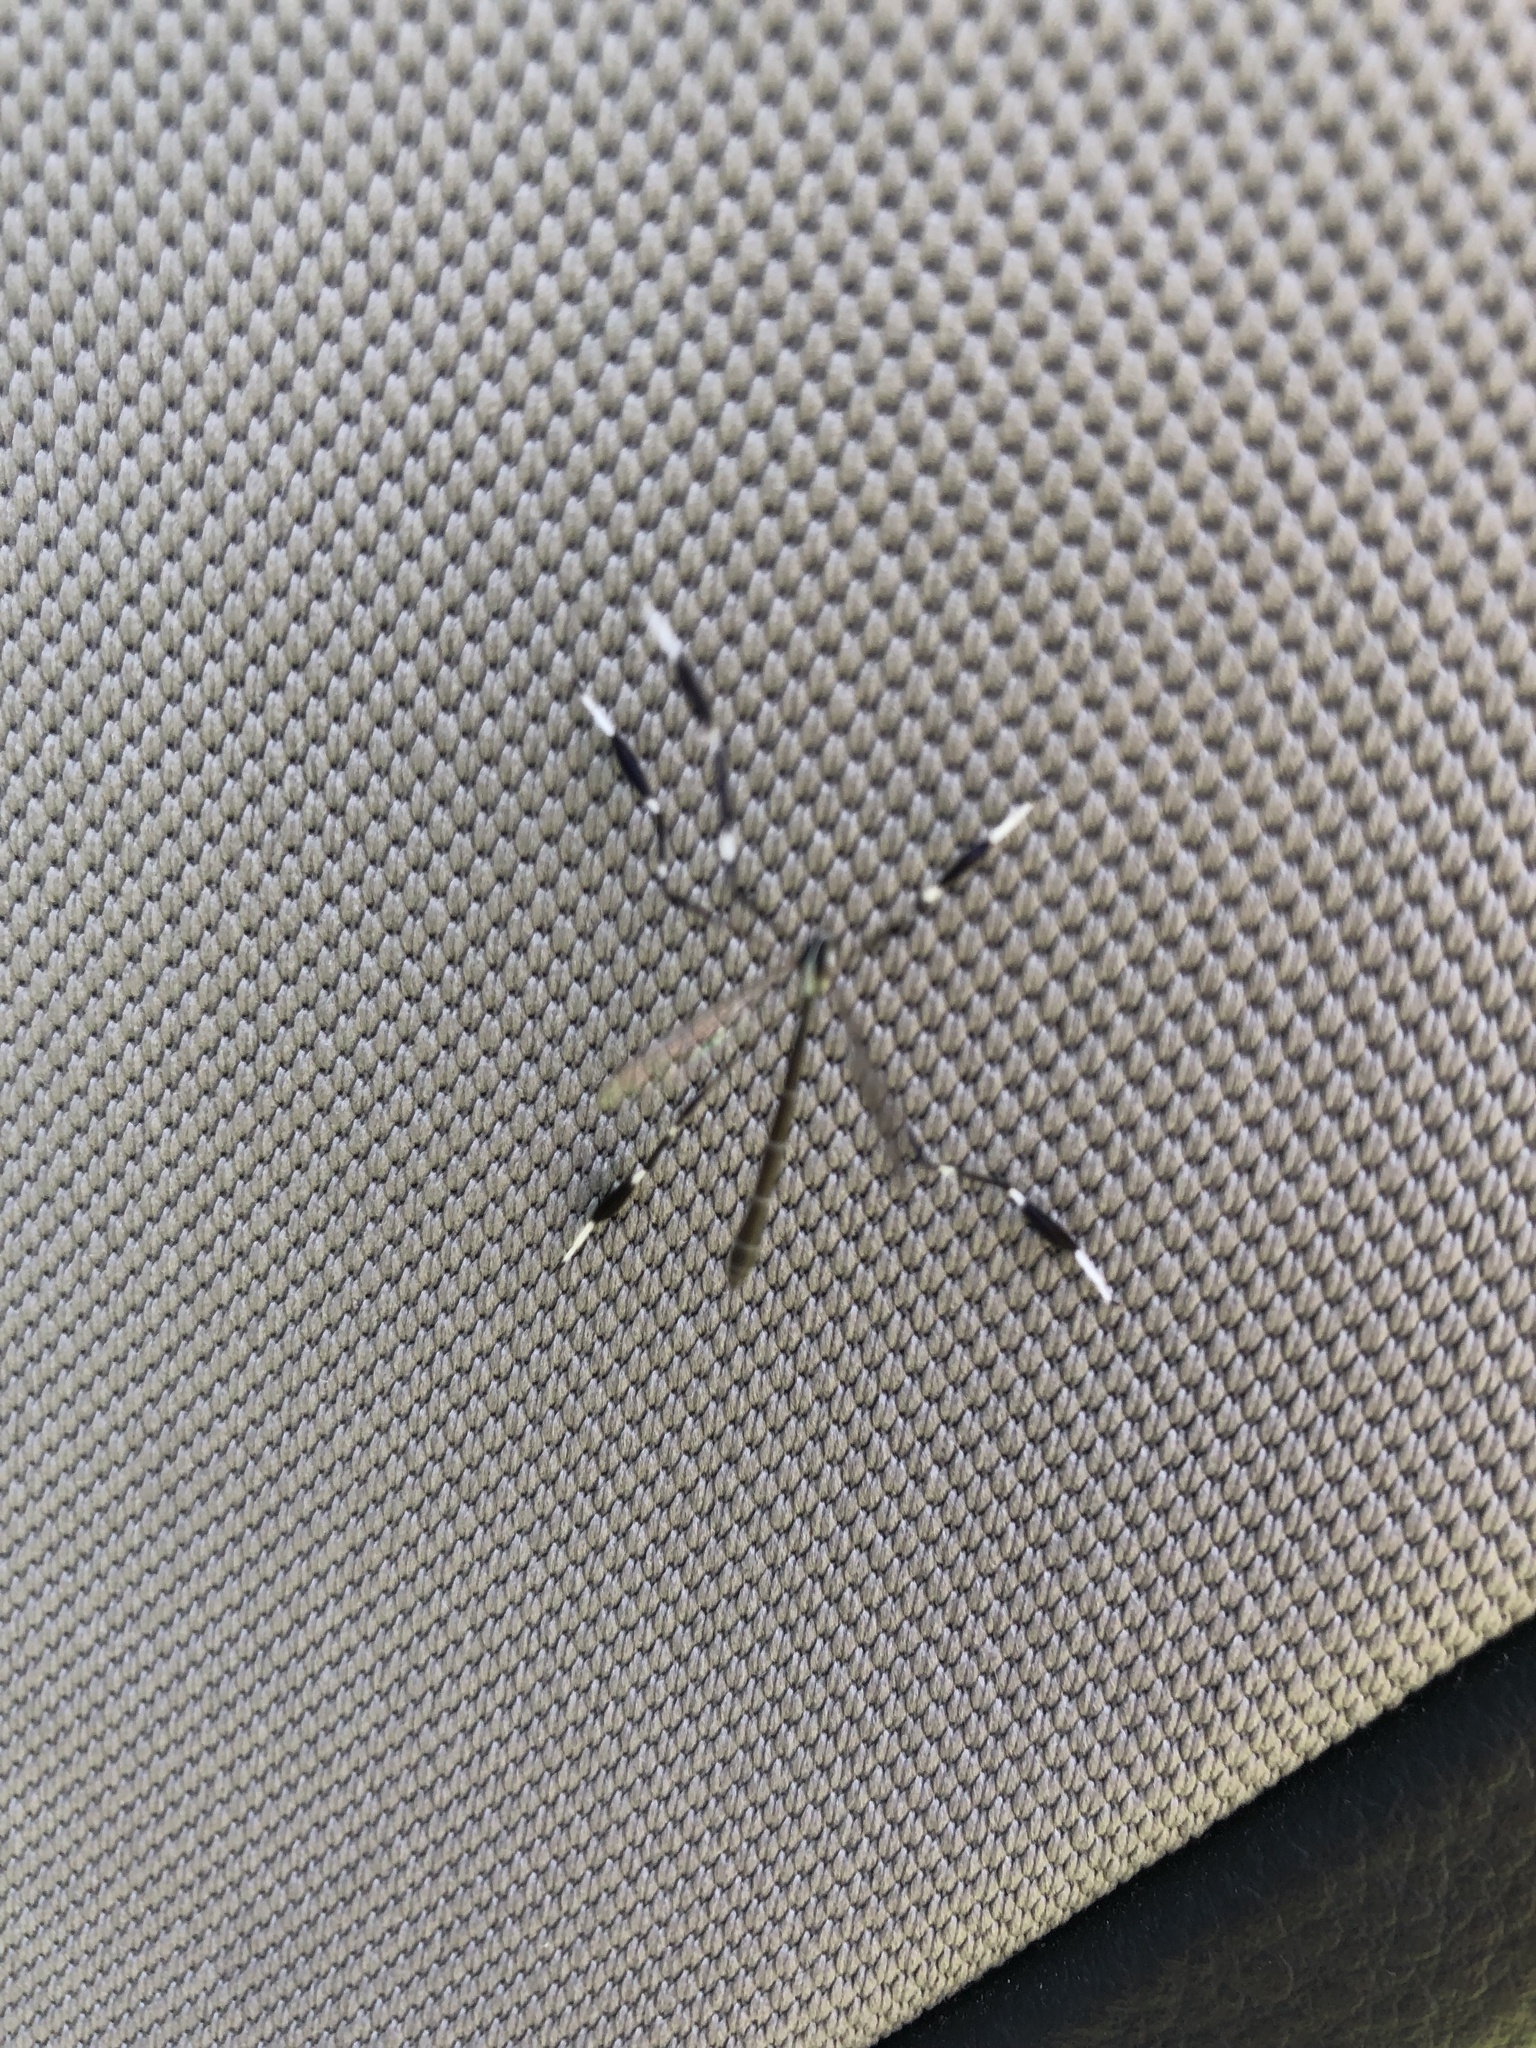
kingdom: Animalia
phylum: Arthropoda
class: Insecta
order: Diptera
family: Ptychopteridae
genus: Bittacomorpha
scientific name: Bittacomorpha clavipes
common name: Eastern phantom crane fly
